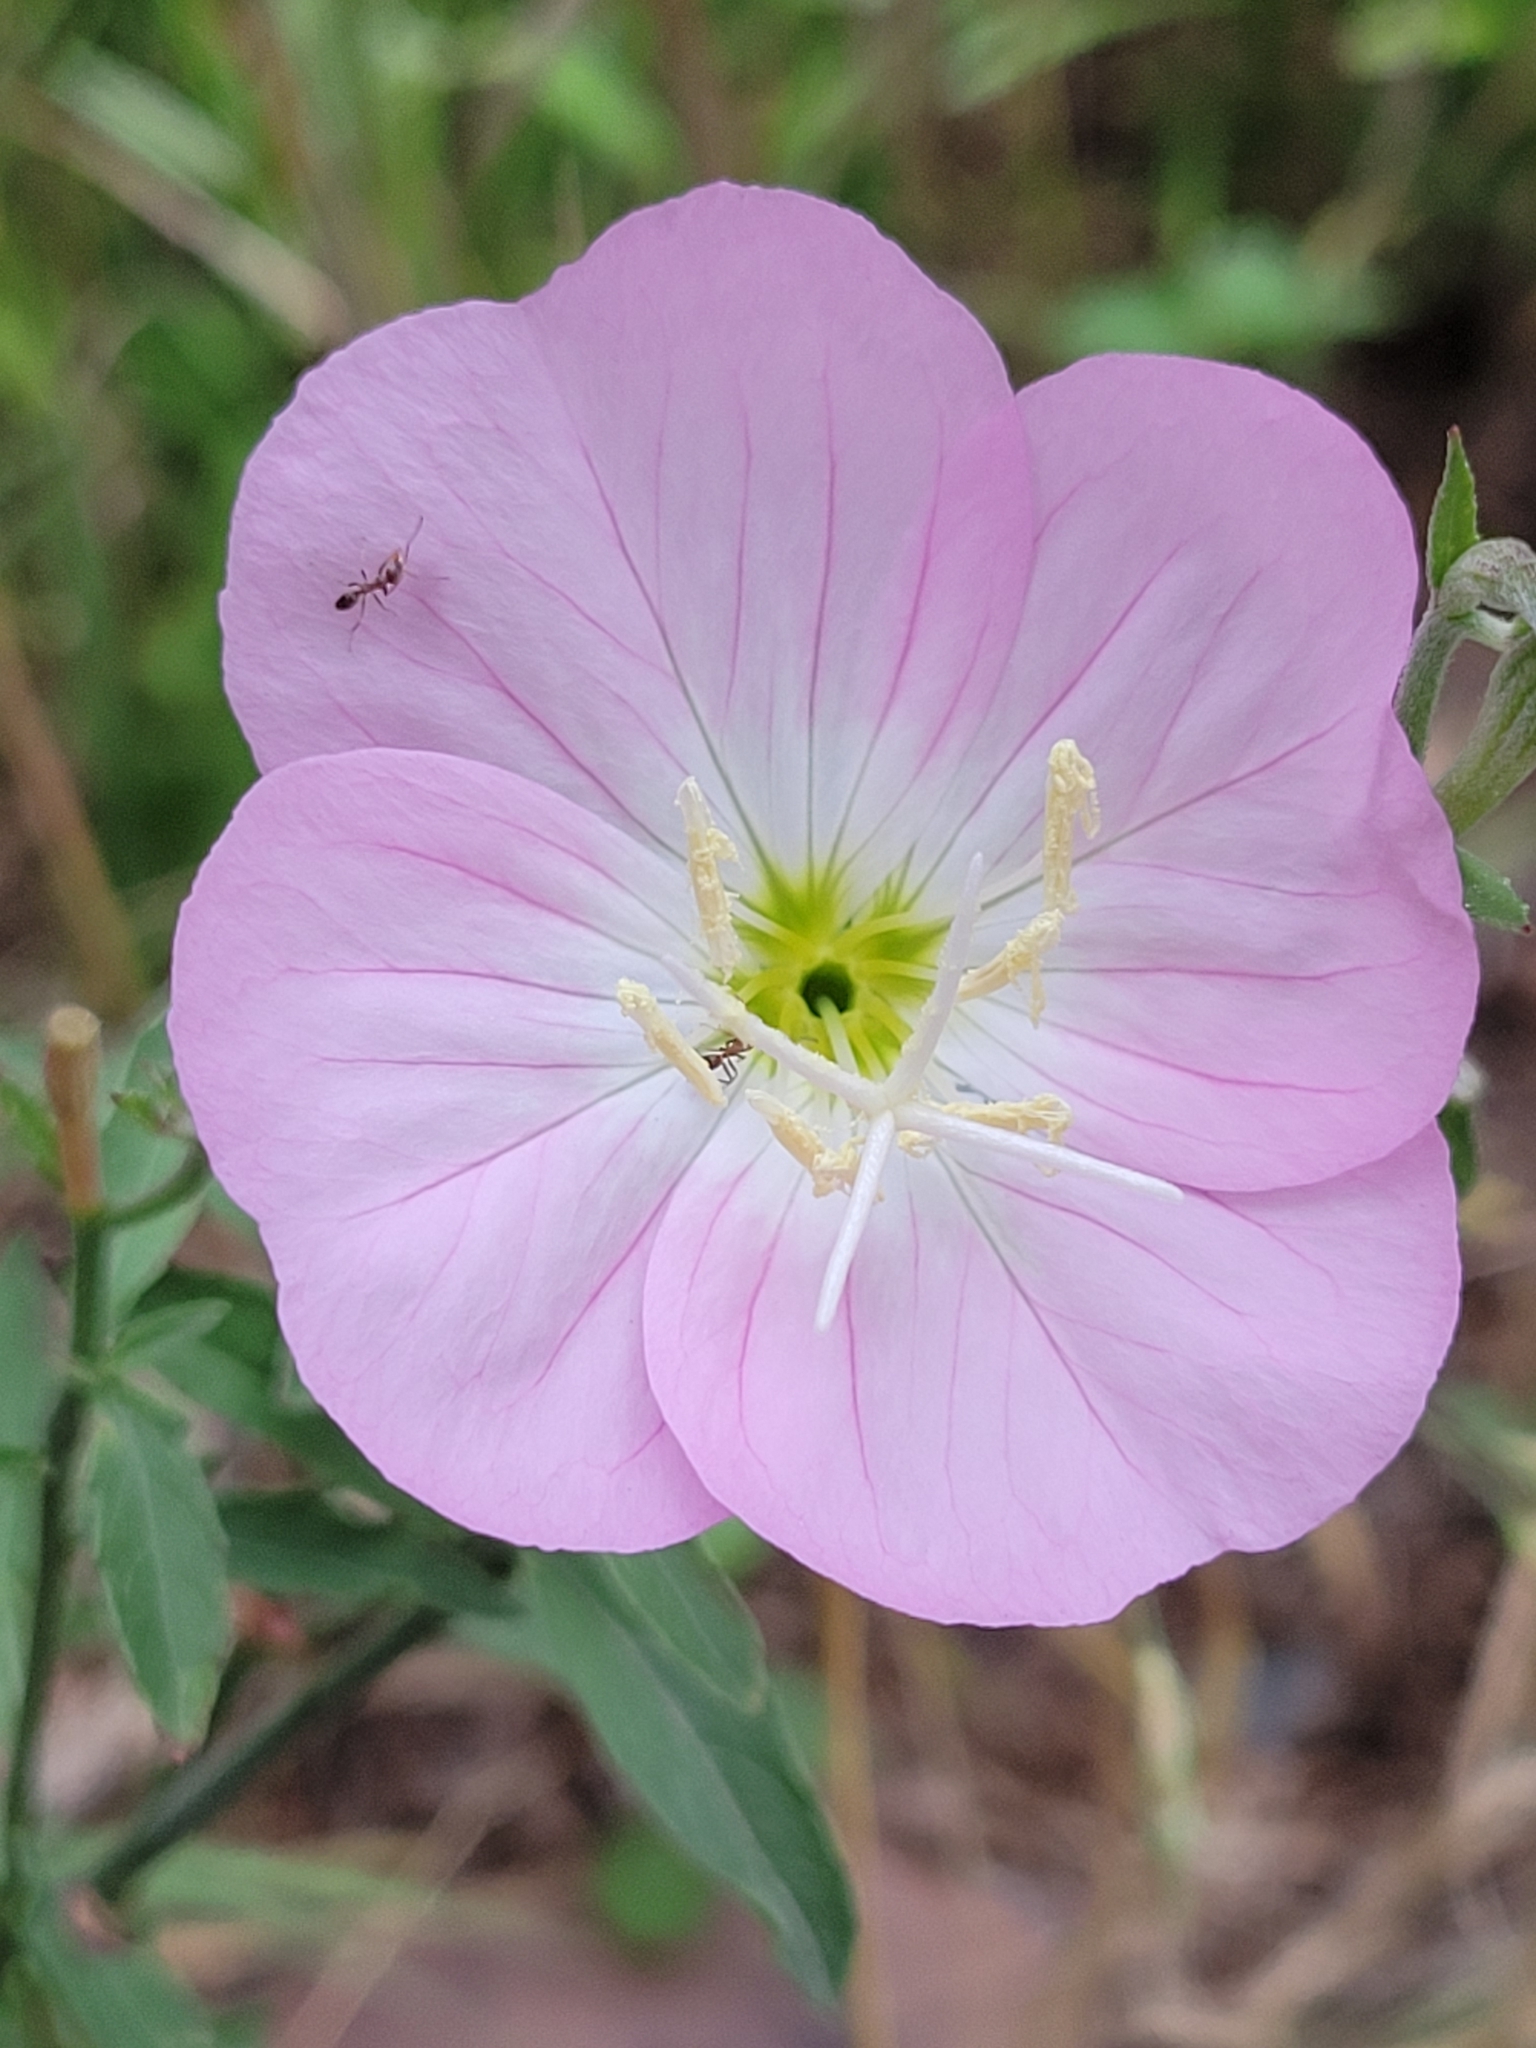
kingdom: Plantae
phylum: Tracheophyta
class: Magnoliopsida
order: Myrtales
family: Onagraceae
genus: Oenothera
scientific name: Oenothera speciosa
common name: White evening-primrose
